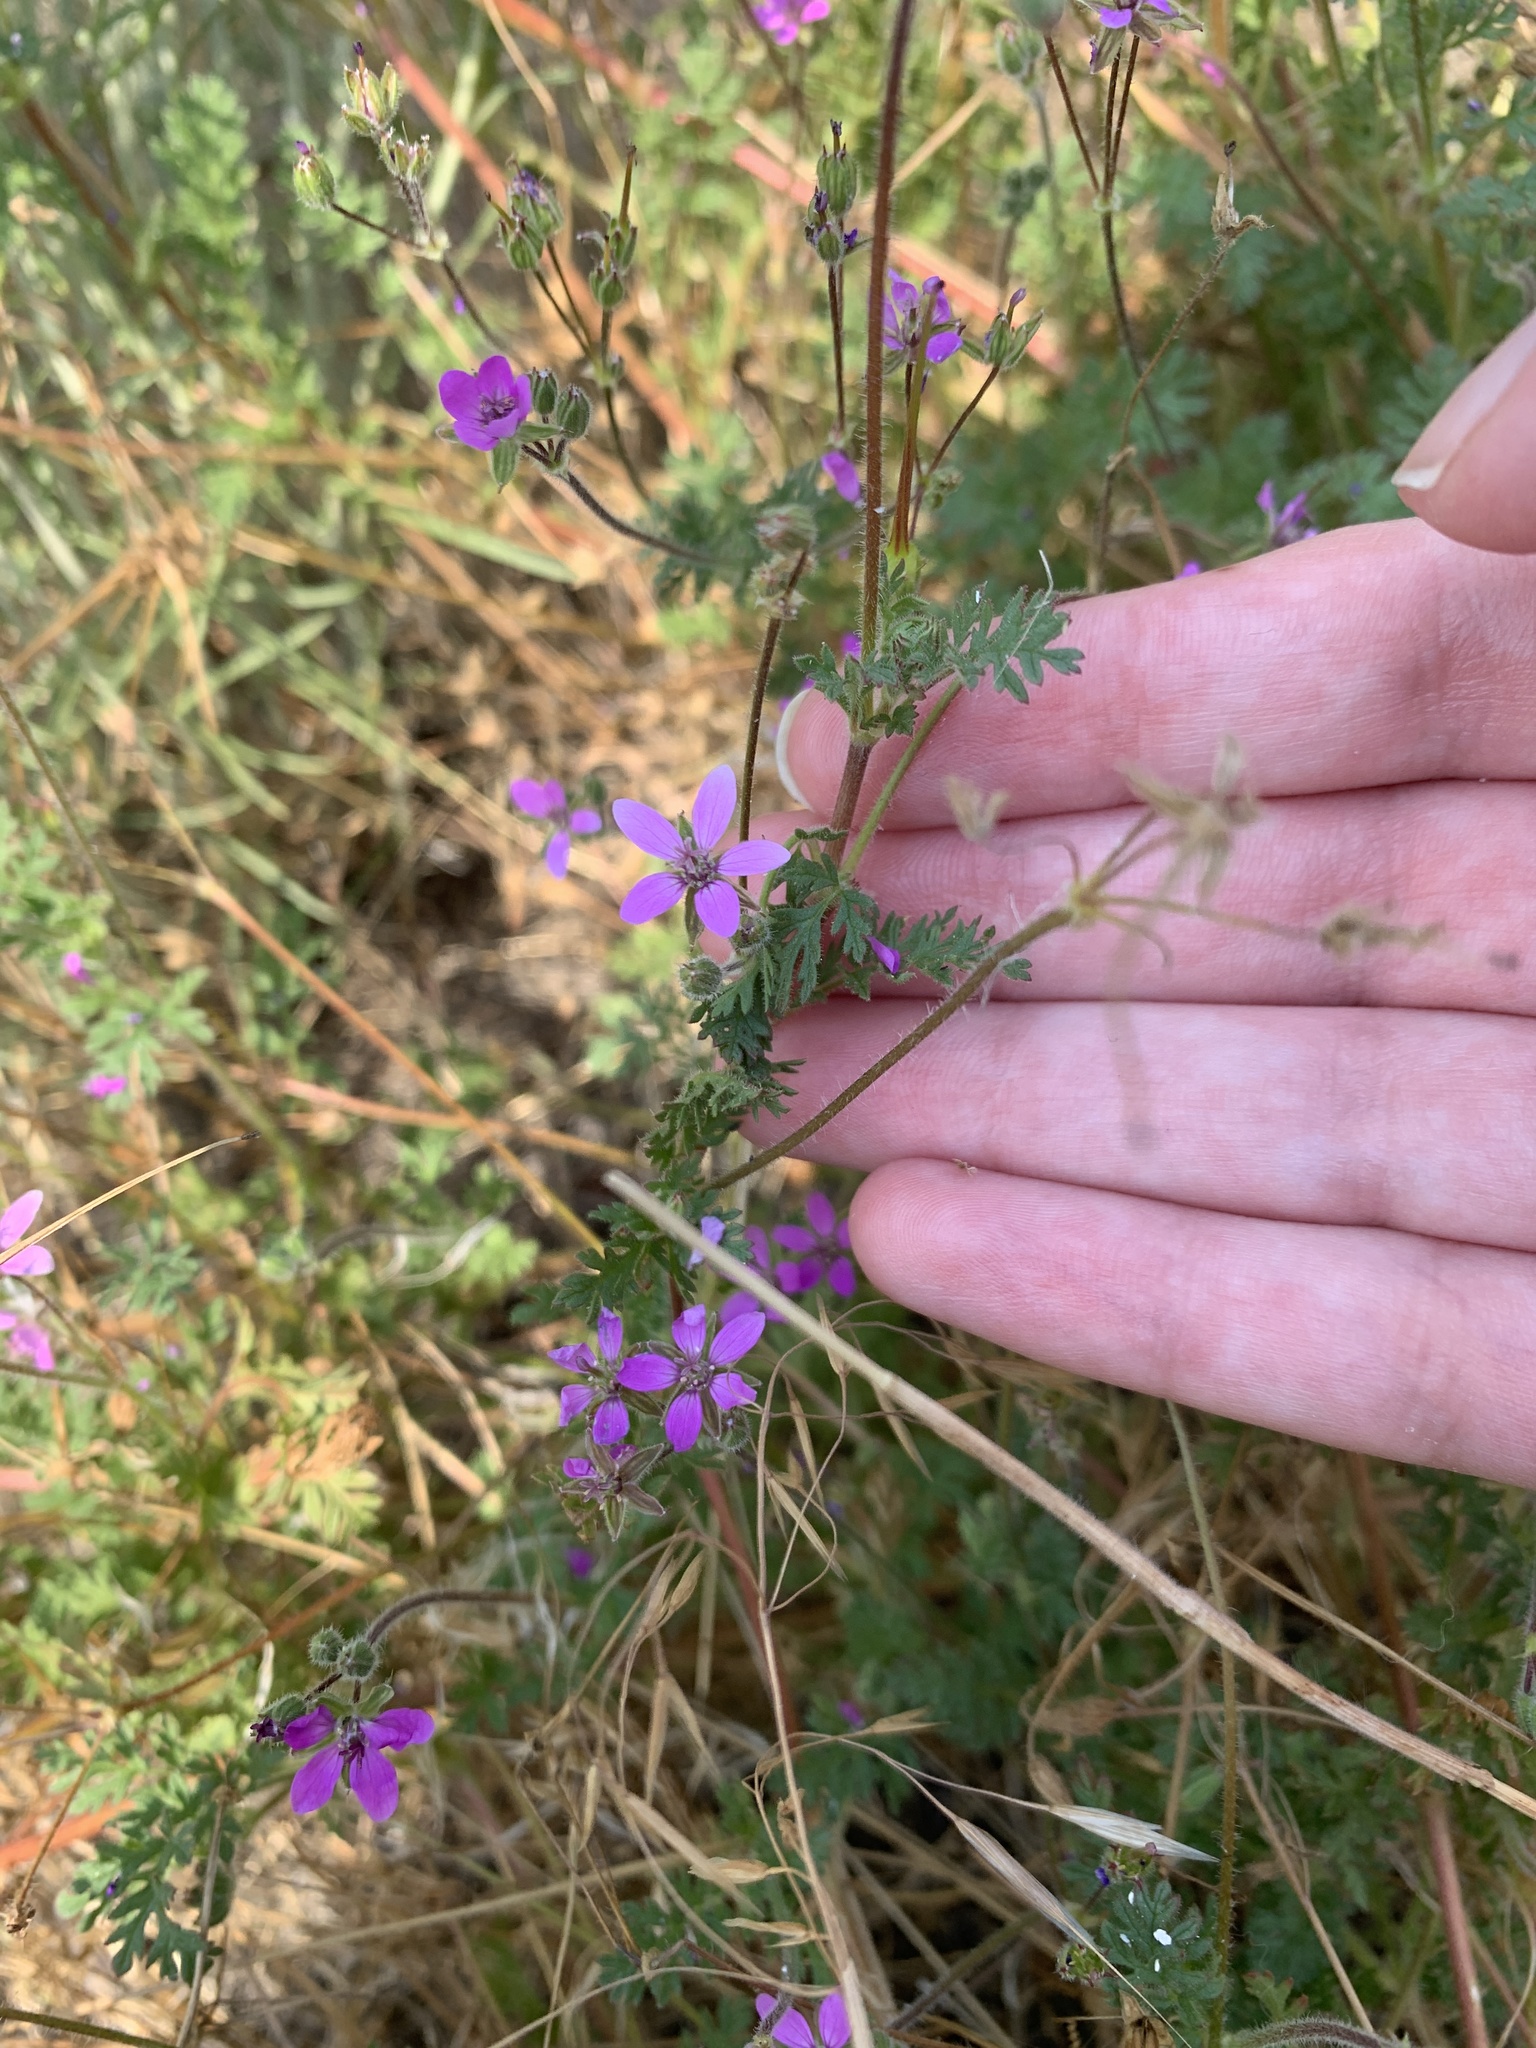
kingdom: Plantae
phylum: Tracheophyta
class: Magnoliopsida
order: Geraniales
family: Geraniaceae
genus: Erodium
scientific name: Erodium cicutarium
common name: Common stork's-bill
